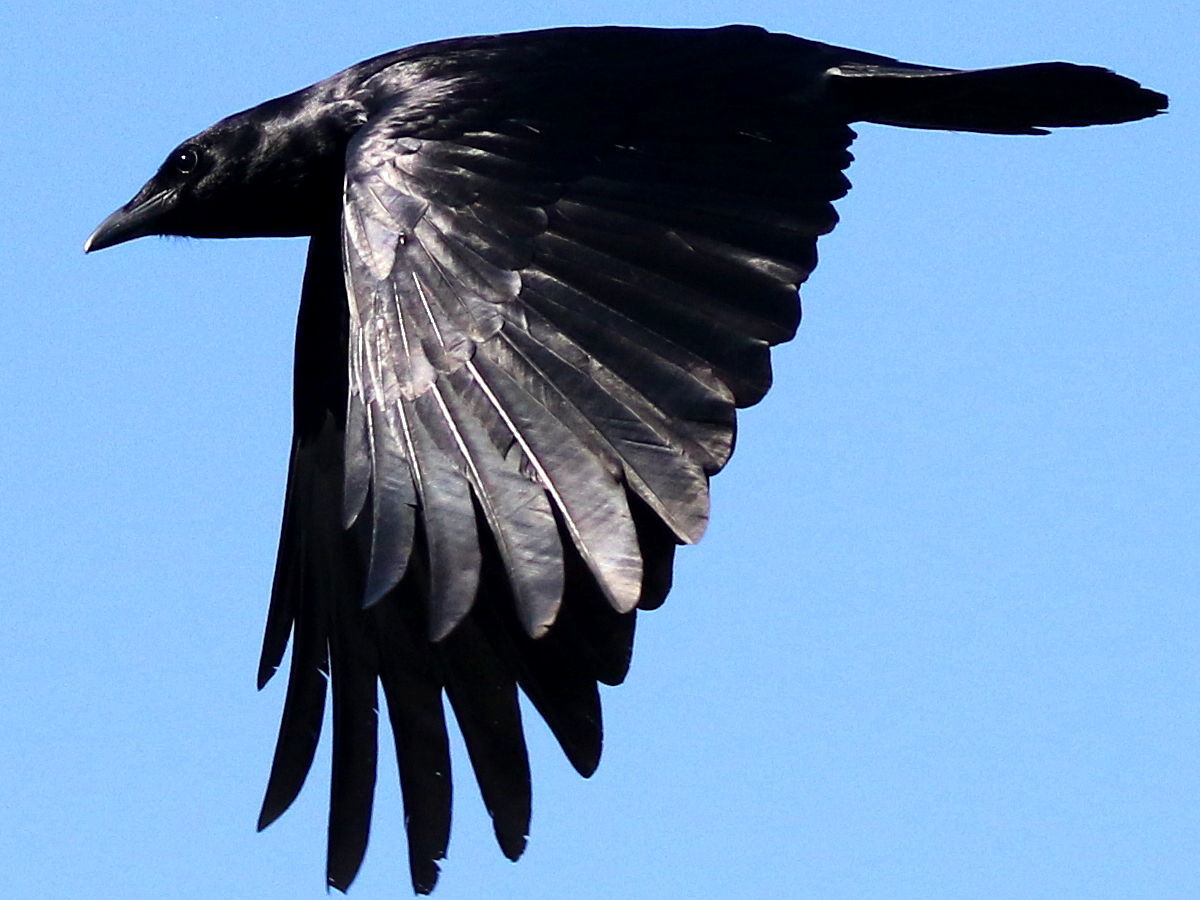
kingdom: Animalia
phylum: Chordata
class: Aves
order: Passeriformes
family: Corvidae
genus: Corvus
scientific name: Corvus ossifragus
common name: Fish crow
